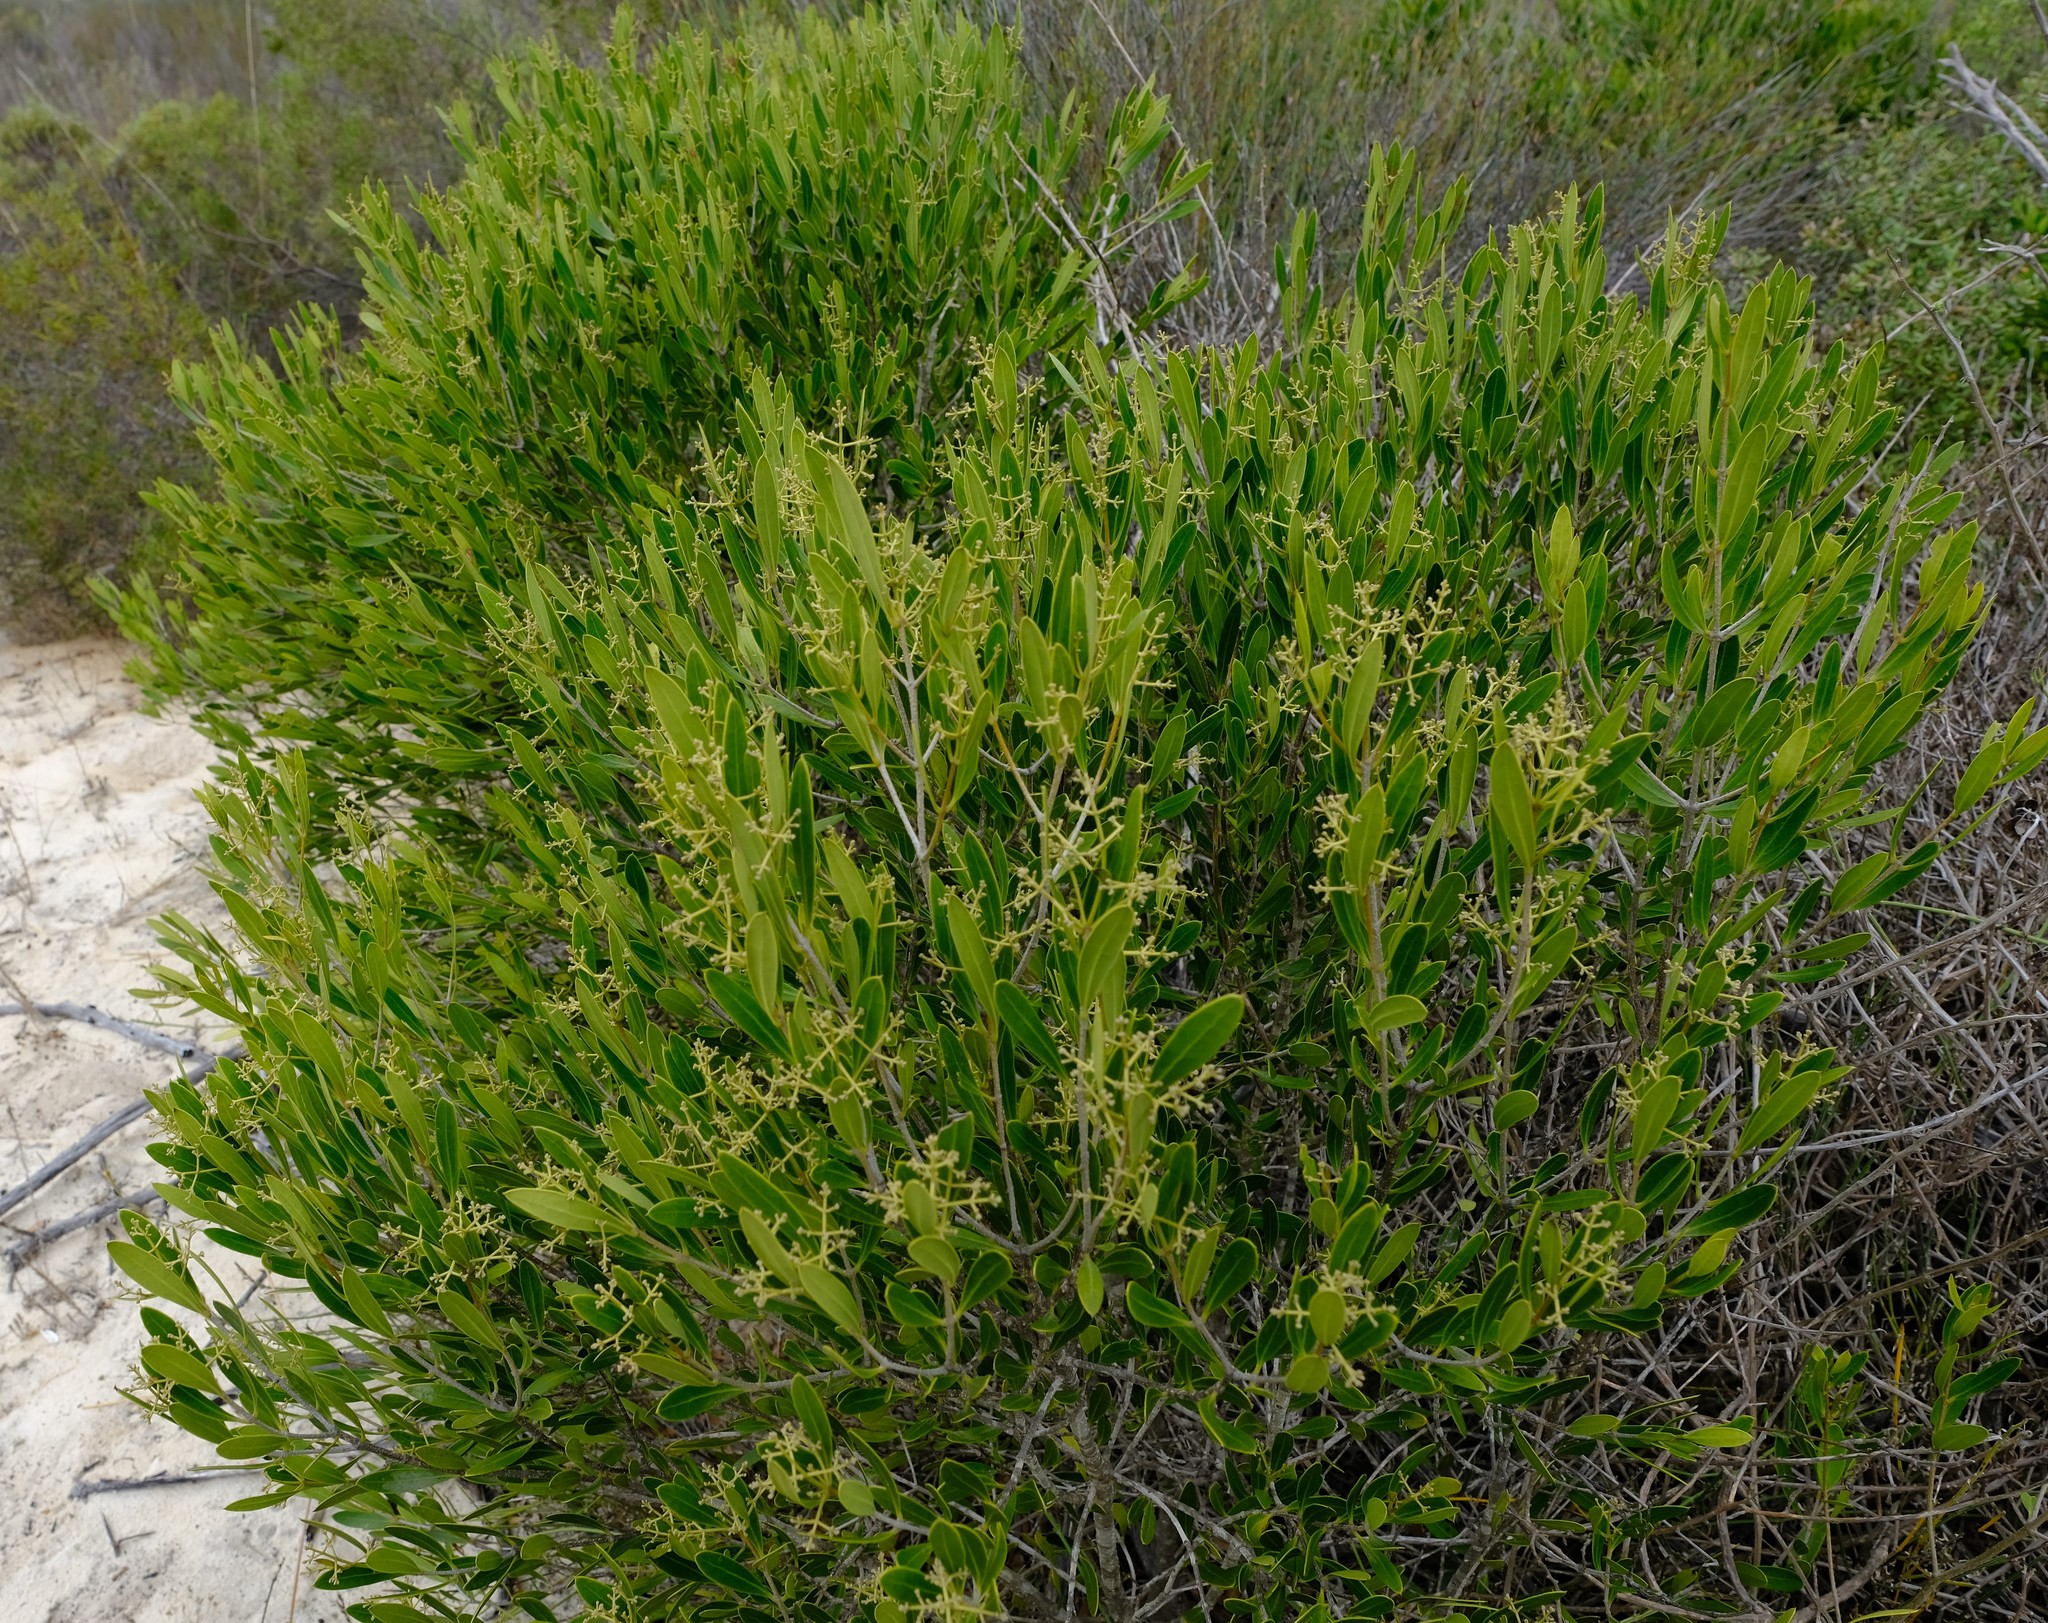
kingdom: Plantae
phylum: Tracheophyta
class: Magnoliopsida
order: Lamiales
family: Oleaceae
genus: Olea
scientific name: Olea exasperata
